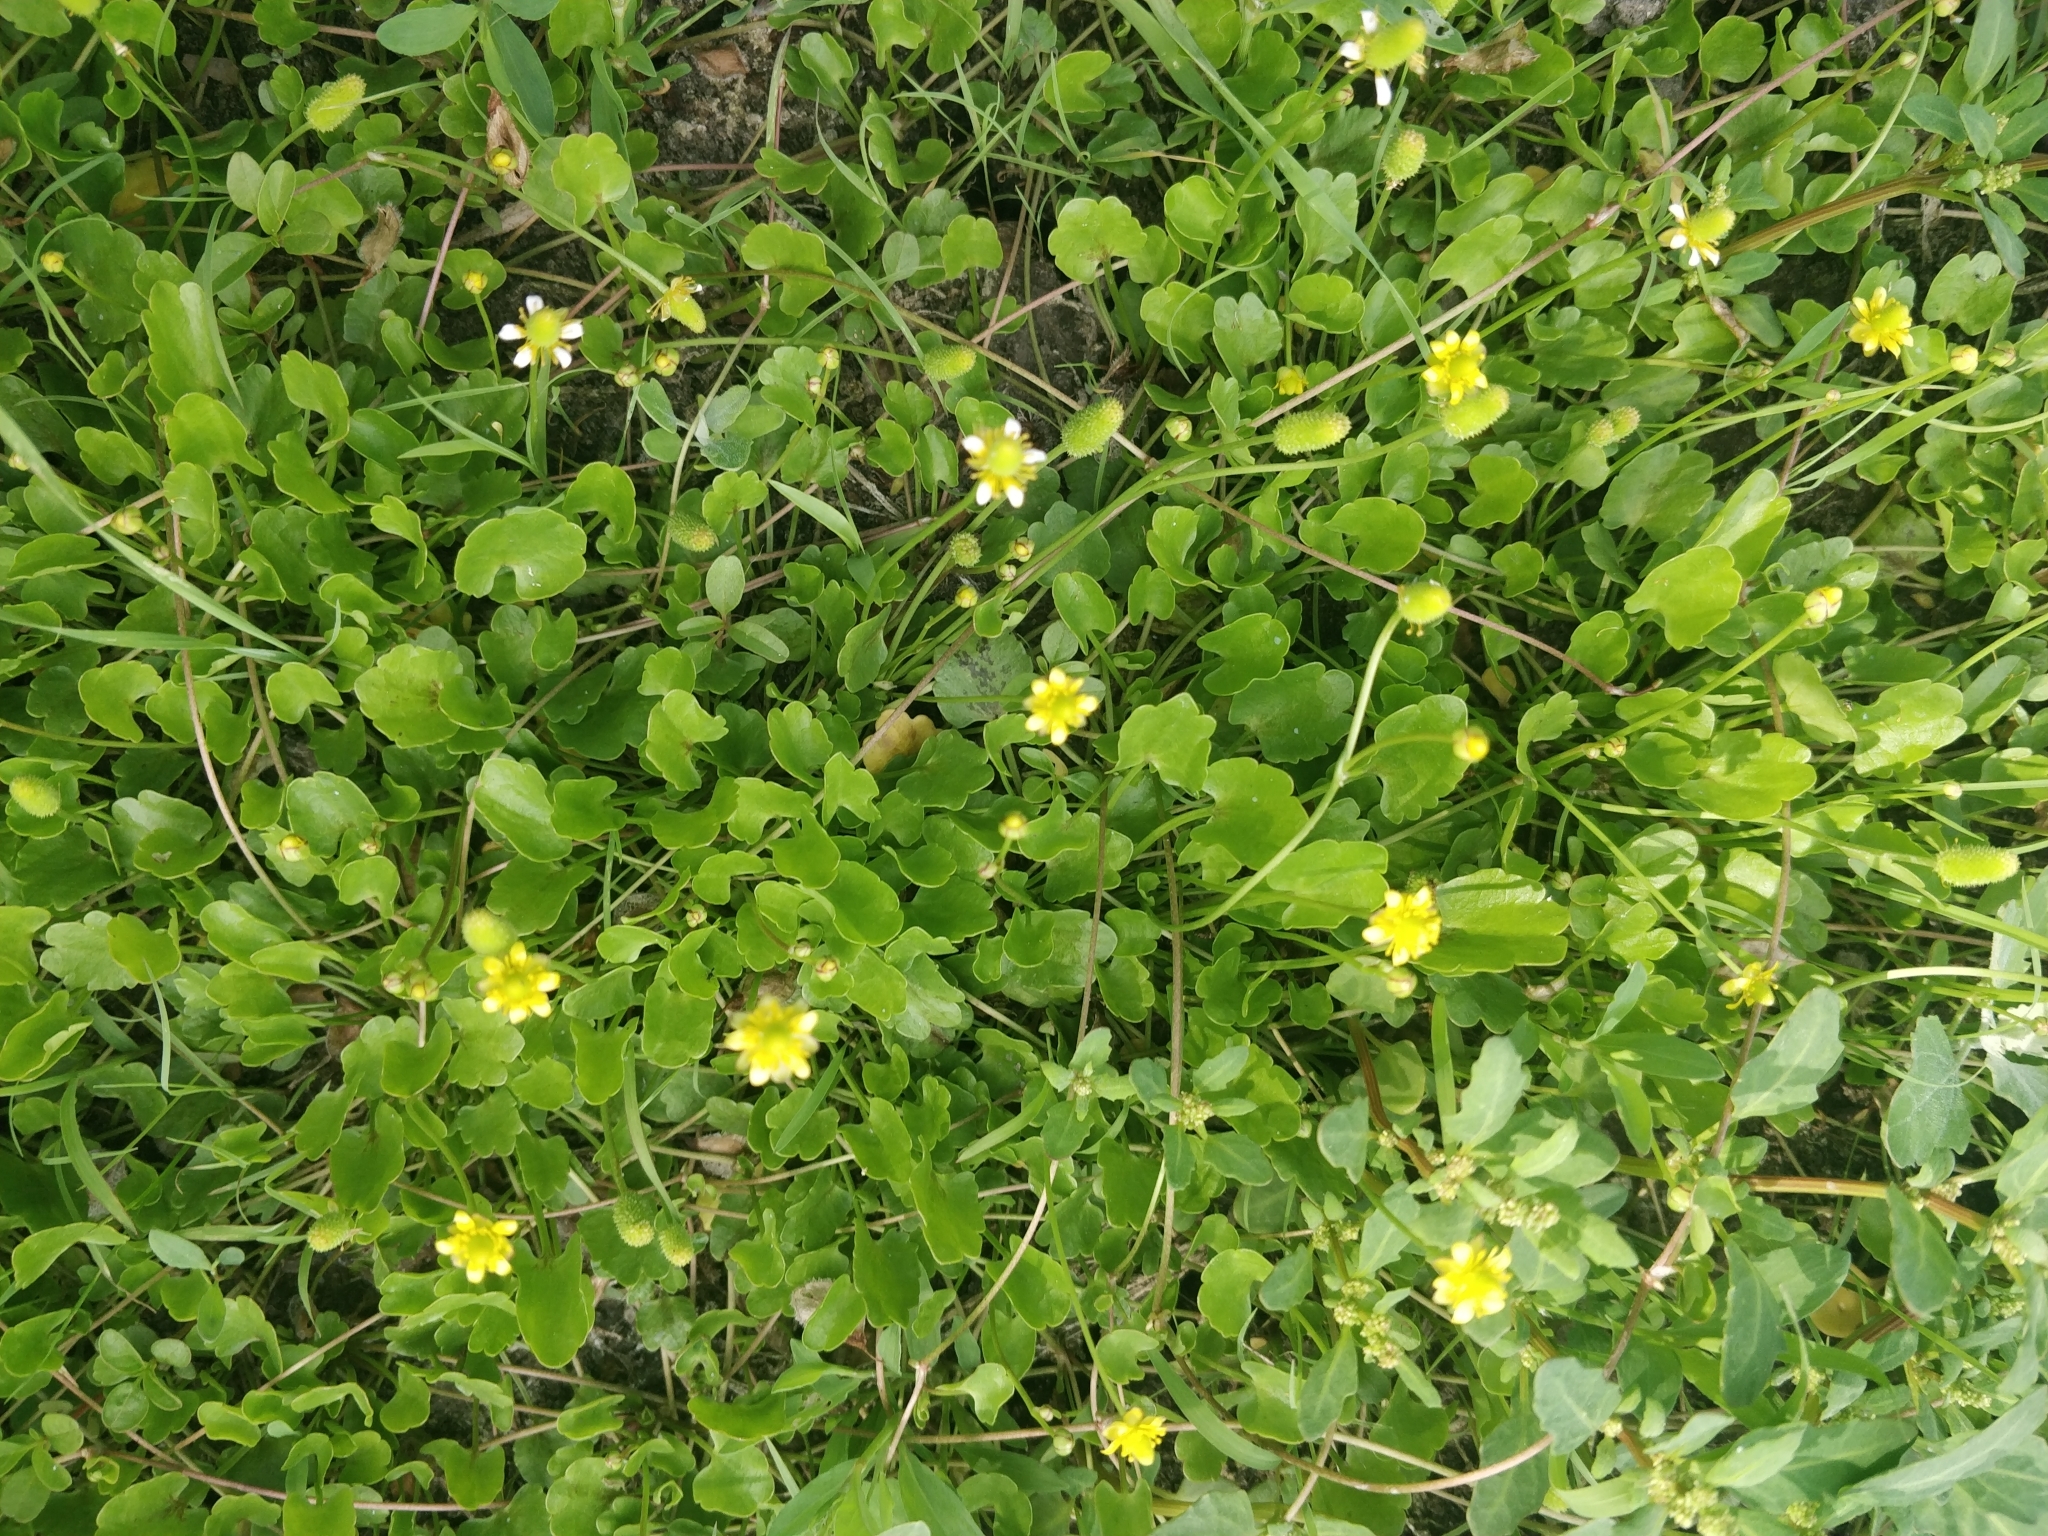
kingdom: Plantae
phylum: Tracheophyta
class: Magnoliopsida
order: Ranunculales
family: Ranunculaceae
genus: Halerpestes
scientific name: Halerpestes cymbalaria
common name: Seaside crowfoot
